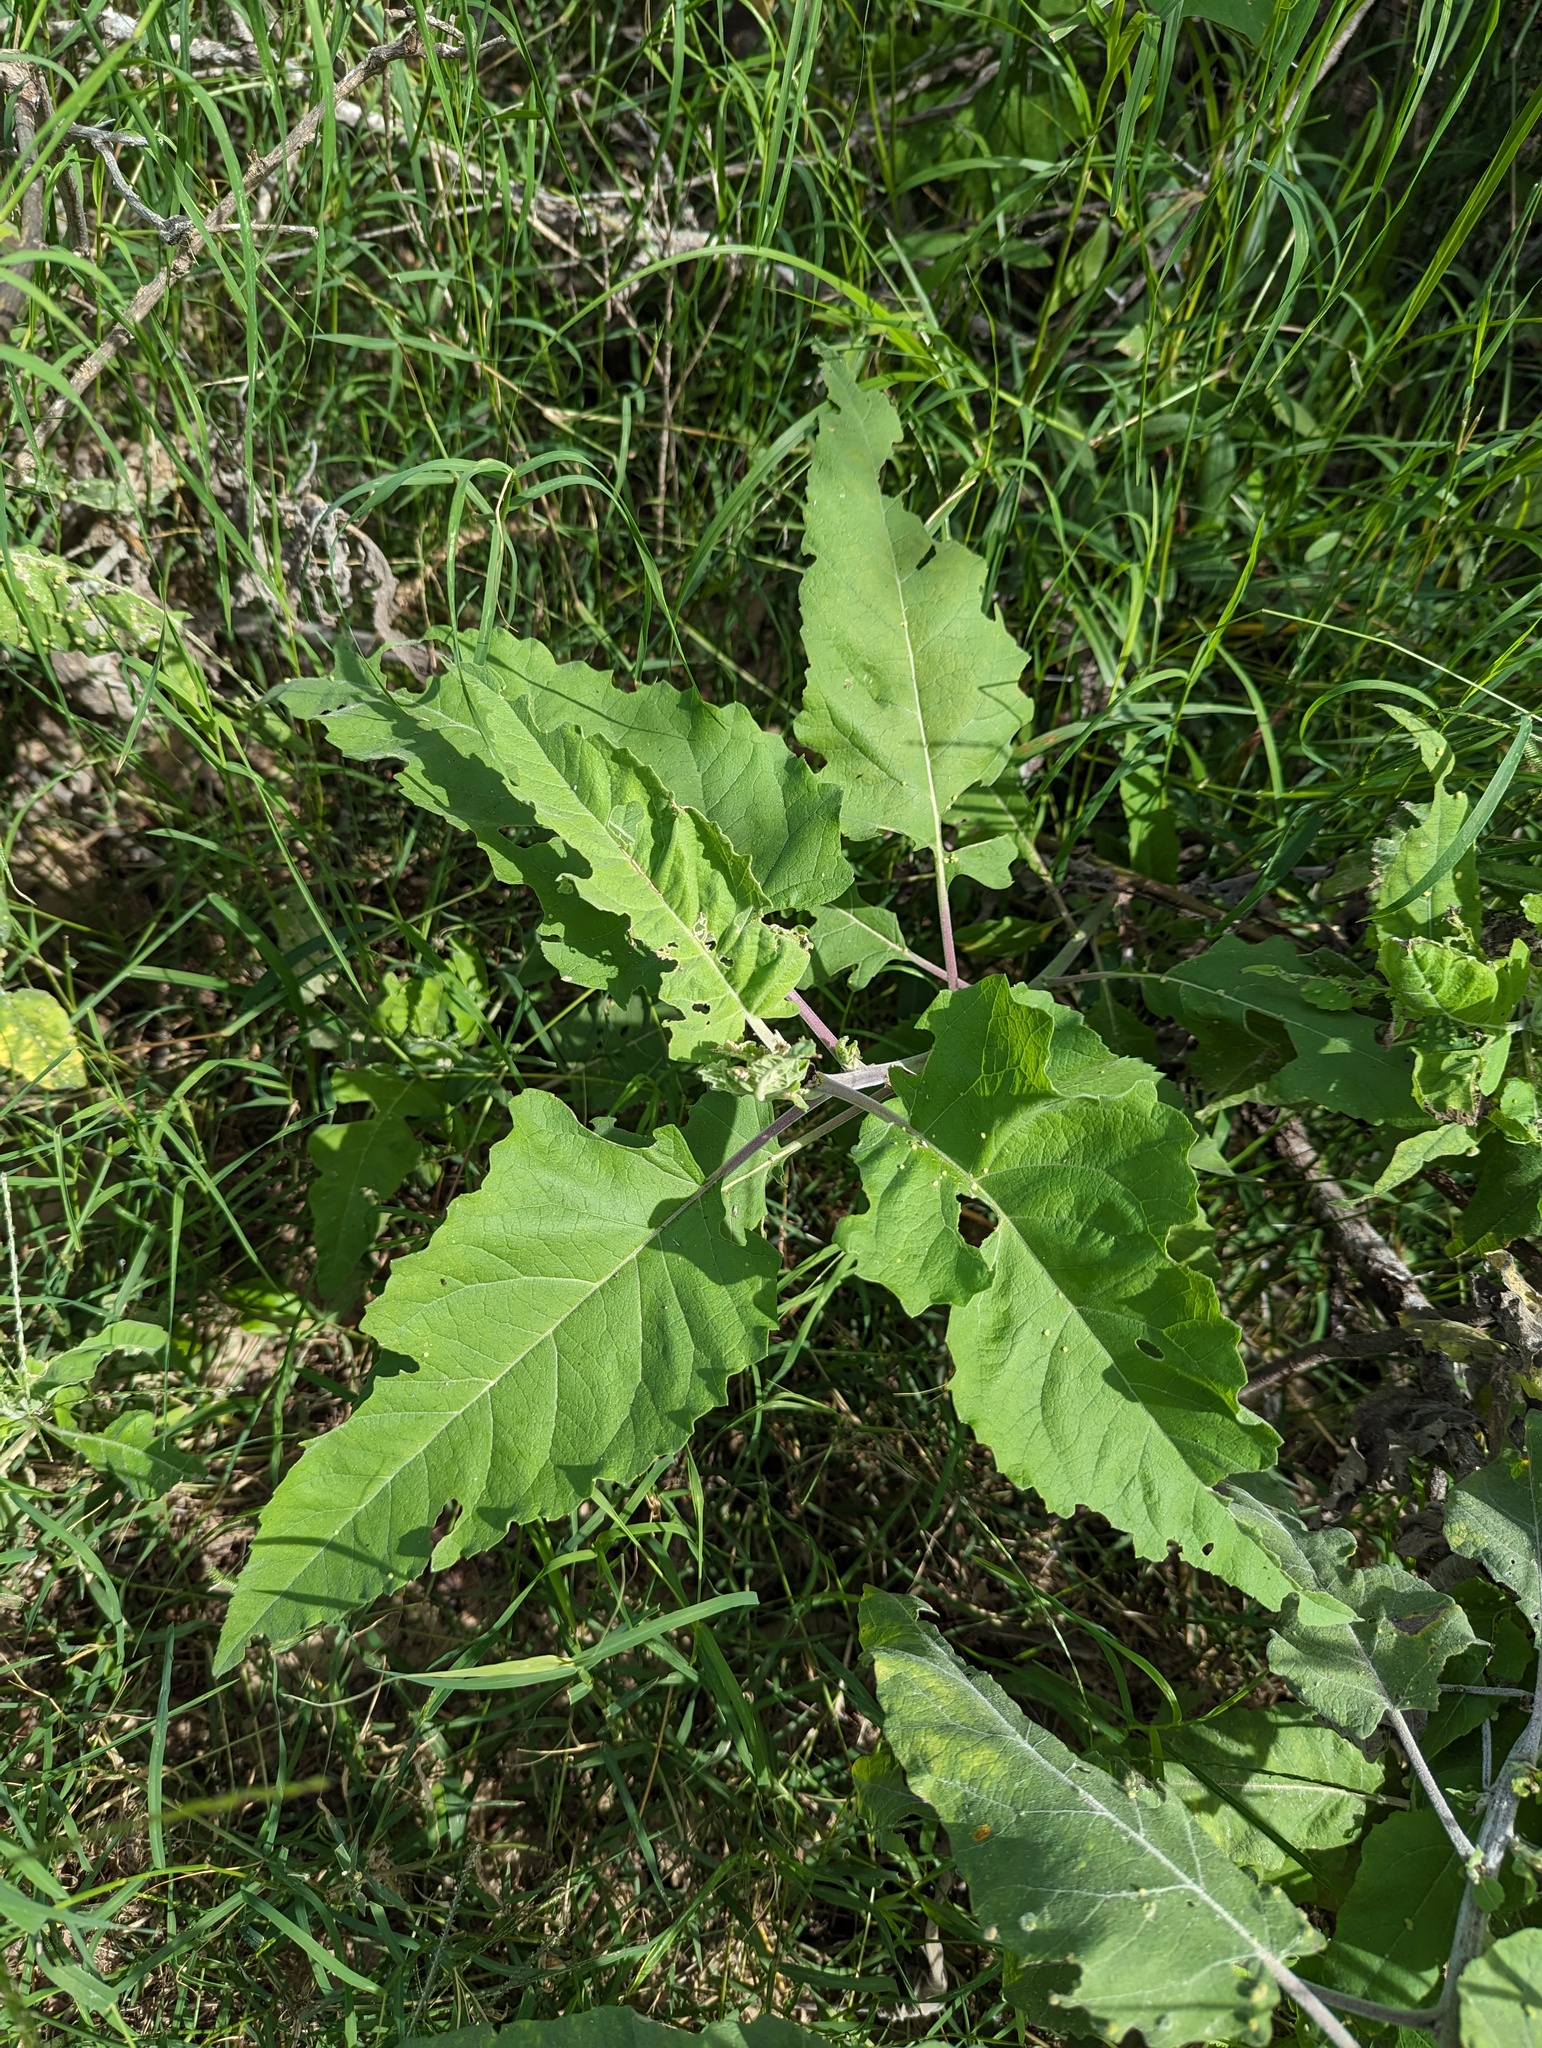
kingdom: Plantae
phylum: Tracheophyta
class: Magnoliopsida
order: Asterales
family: Asteraceae
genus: Ambrosia
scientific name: Ambrosia ambrosioides
